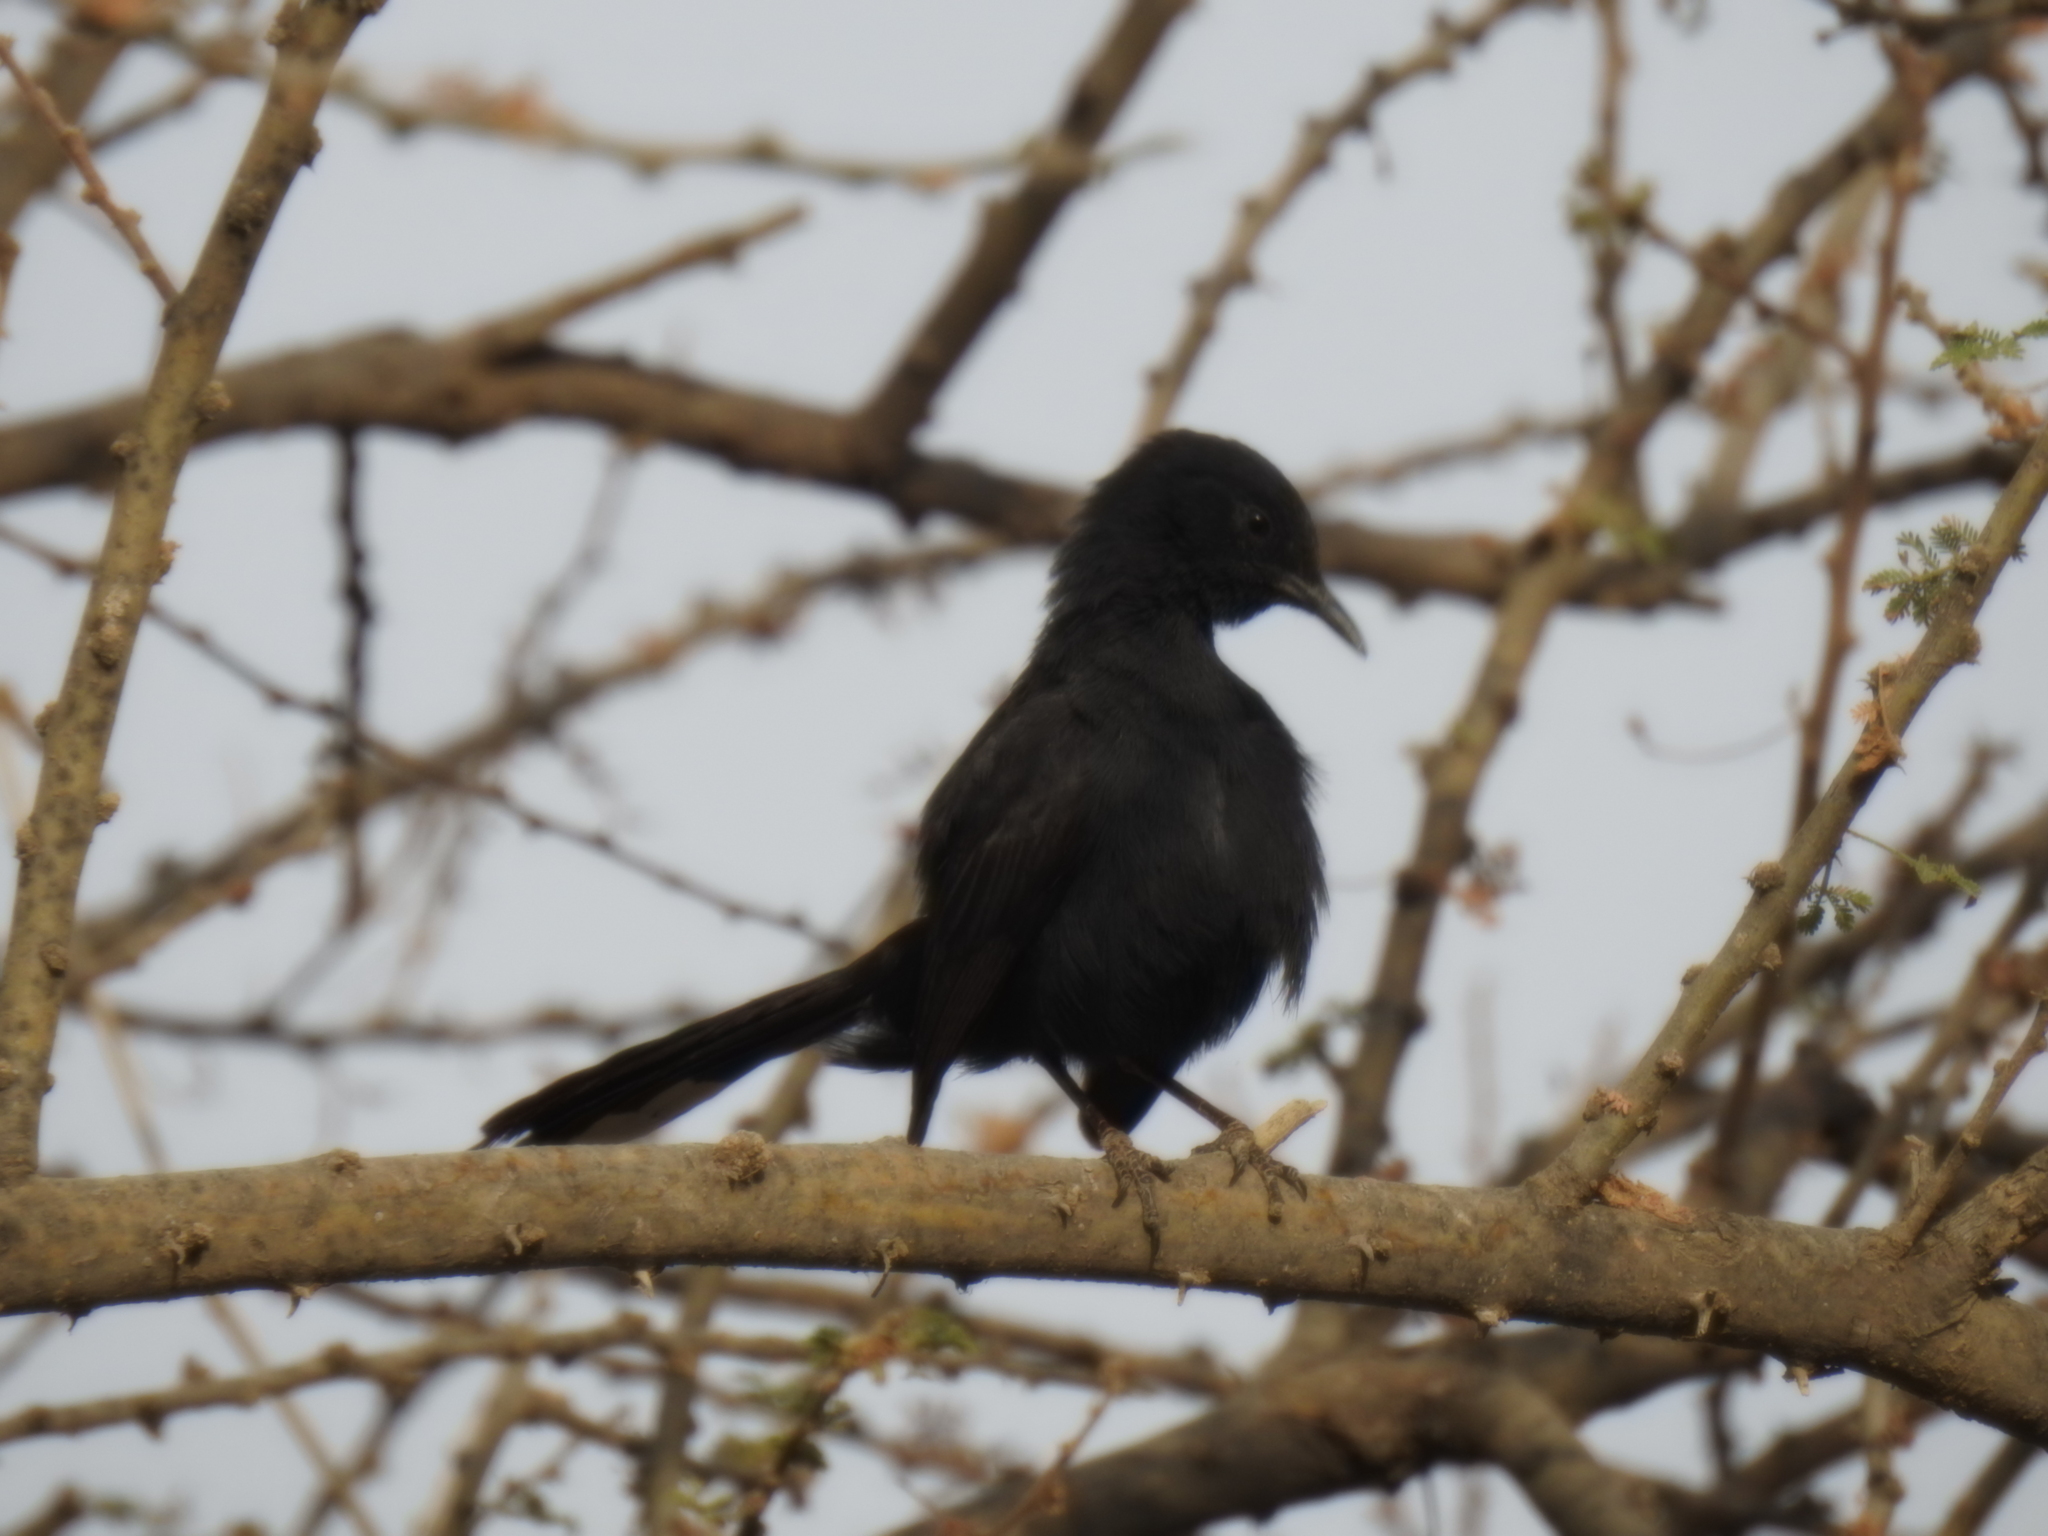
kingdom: Animalia
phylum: Chordata
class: Aves
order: Passeriformes
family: Muscicapidae
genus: Cercotrichas
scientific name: Cercotrichas podobe
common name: Black scrub robin
